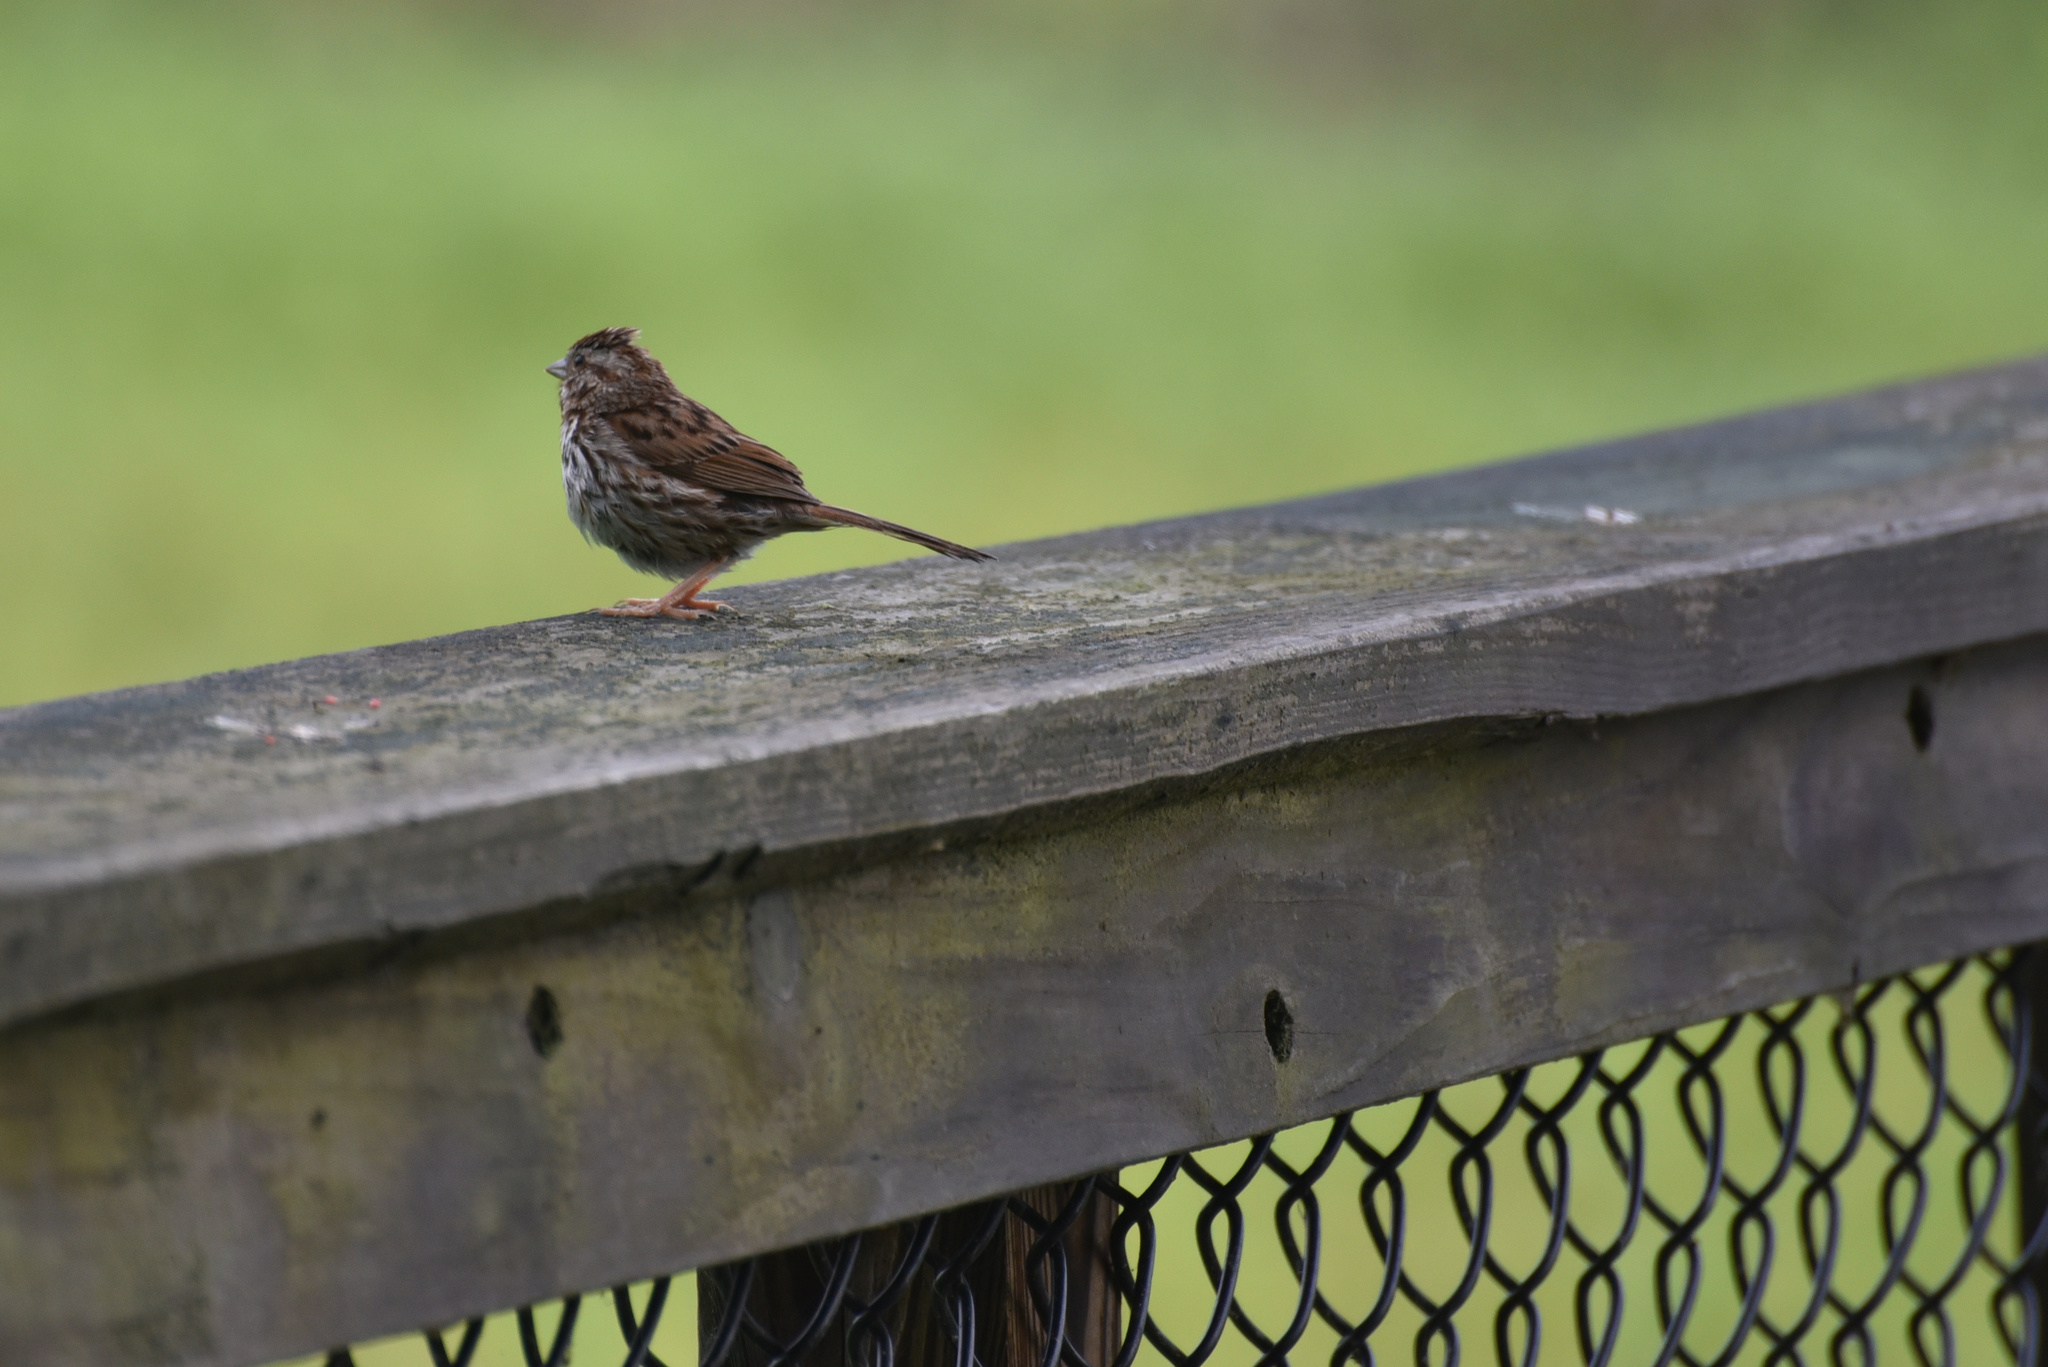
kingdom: Animalia
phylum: Chordata
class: Aves
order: Passeriformes
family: Passerellidae
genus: Melospiza
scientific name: Melospiza melodia
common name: Song sparrow
